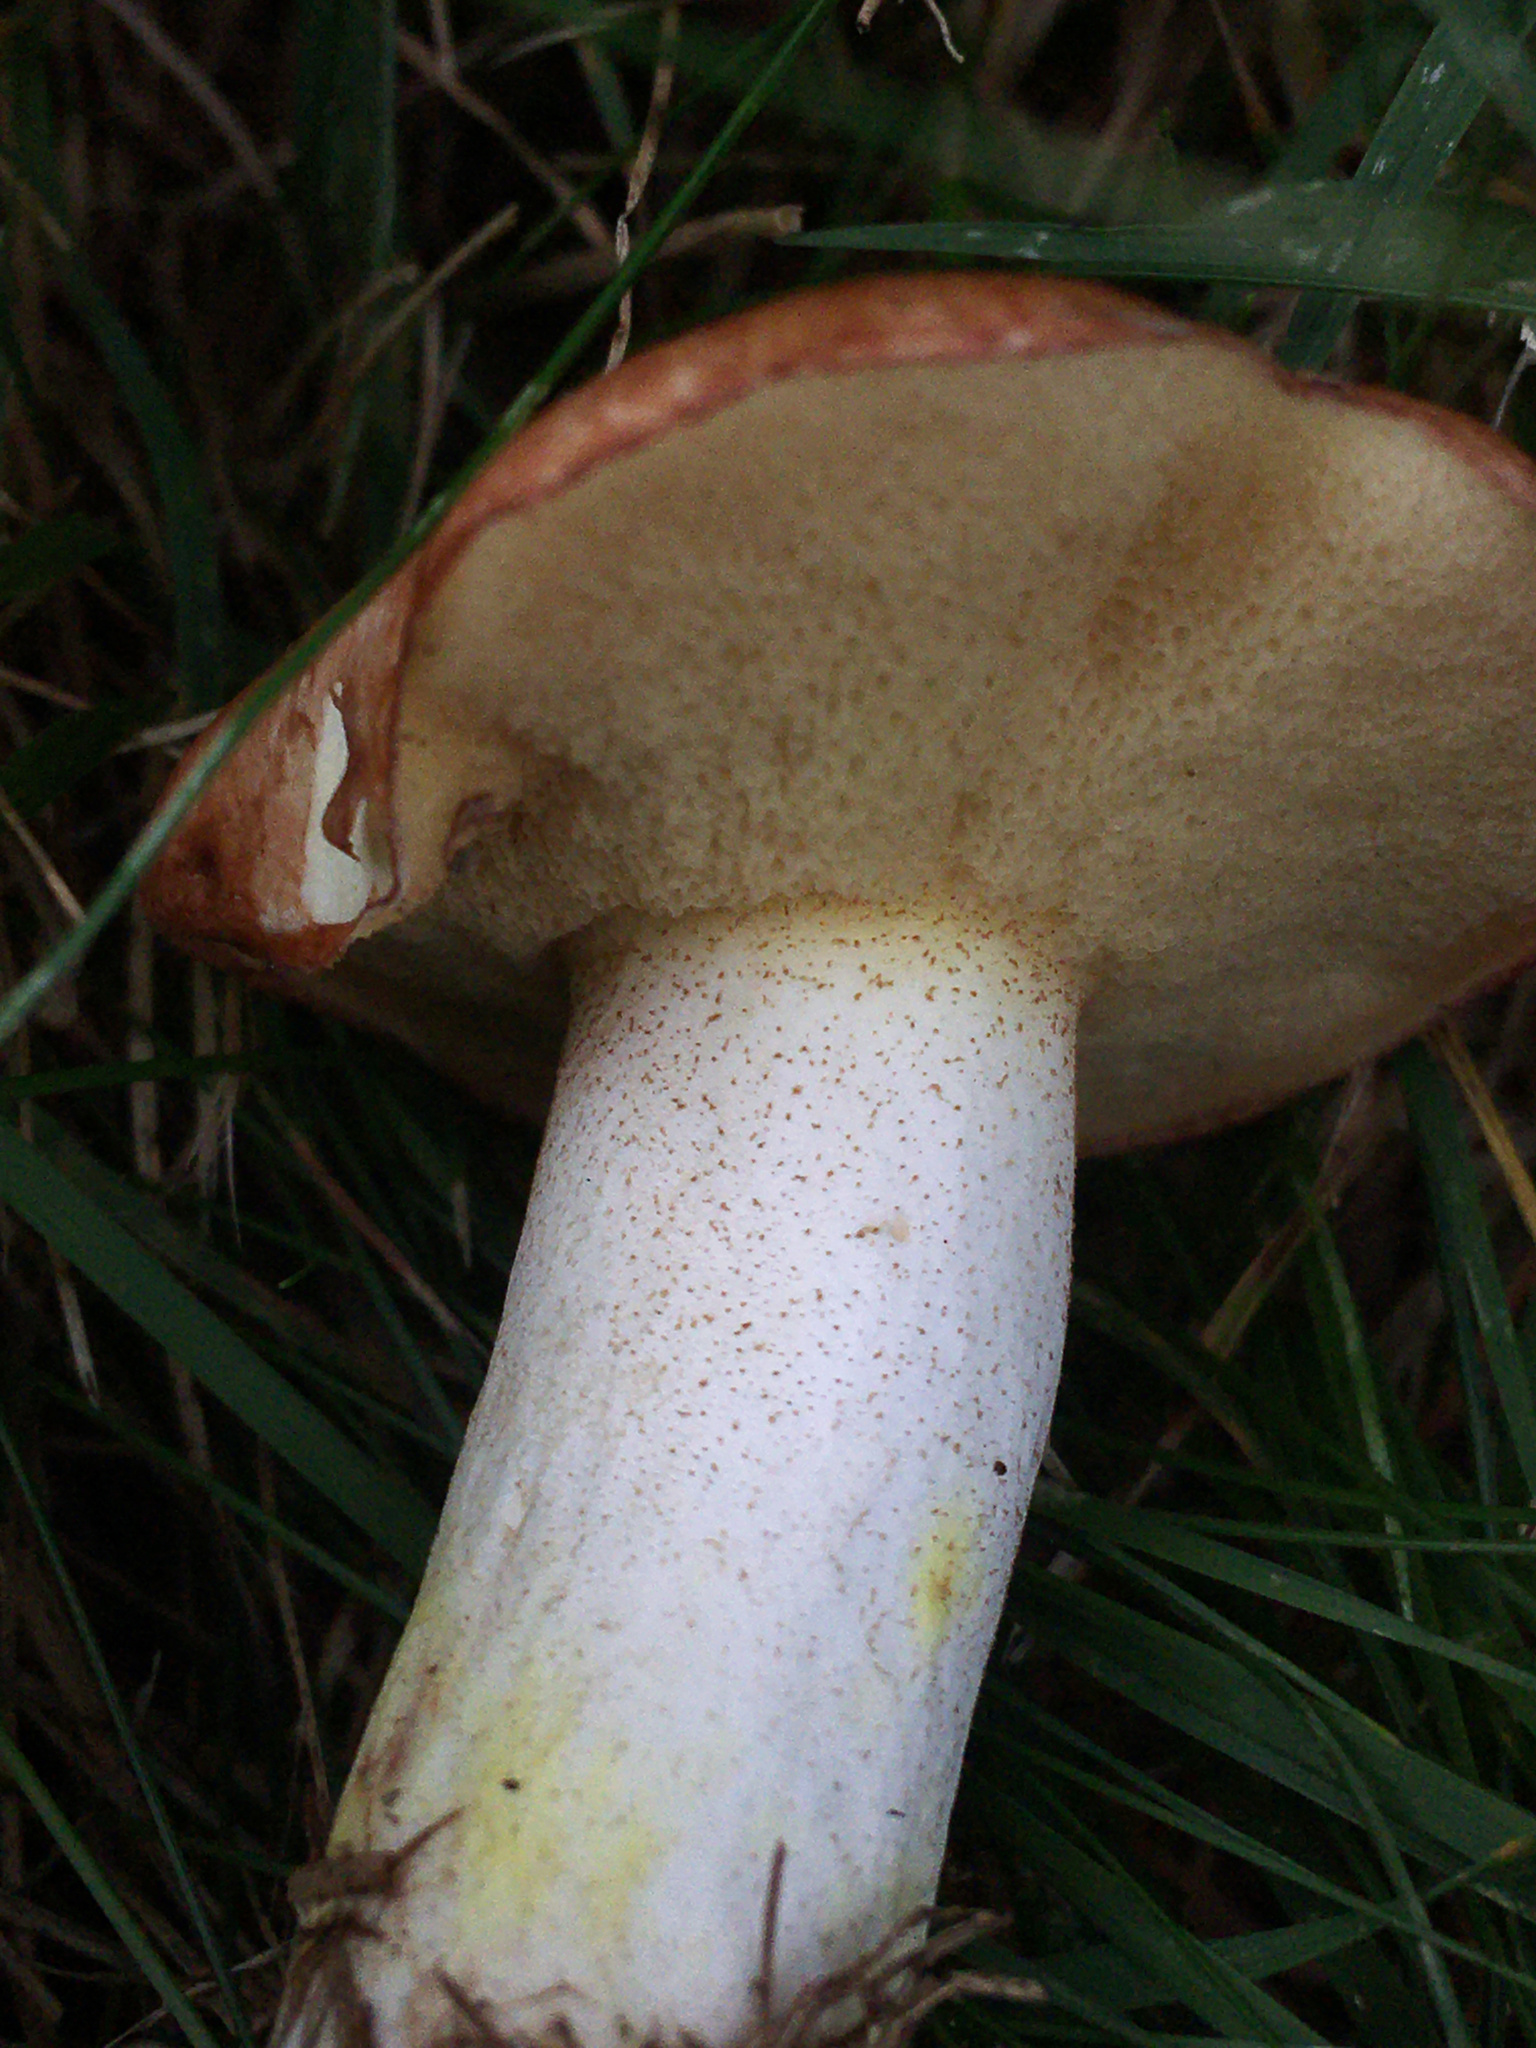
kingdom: Fungi
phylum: Basidiomycota
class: Agaricomycetes
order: Boletales
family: Suillaceae
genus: Fuscoboletinus
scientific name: Fuscoboletinus weaverae
